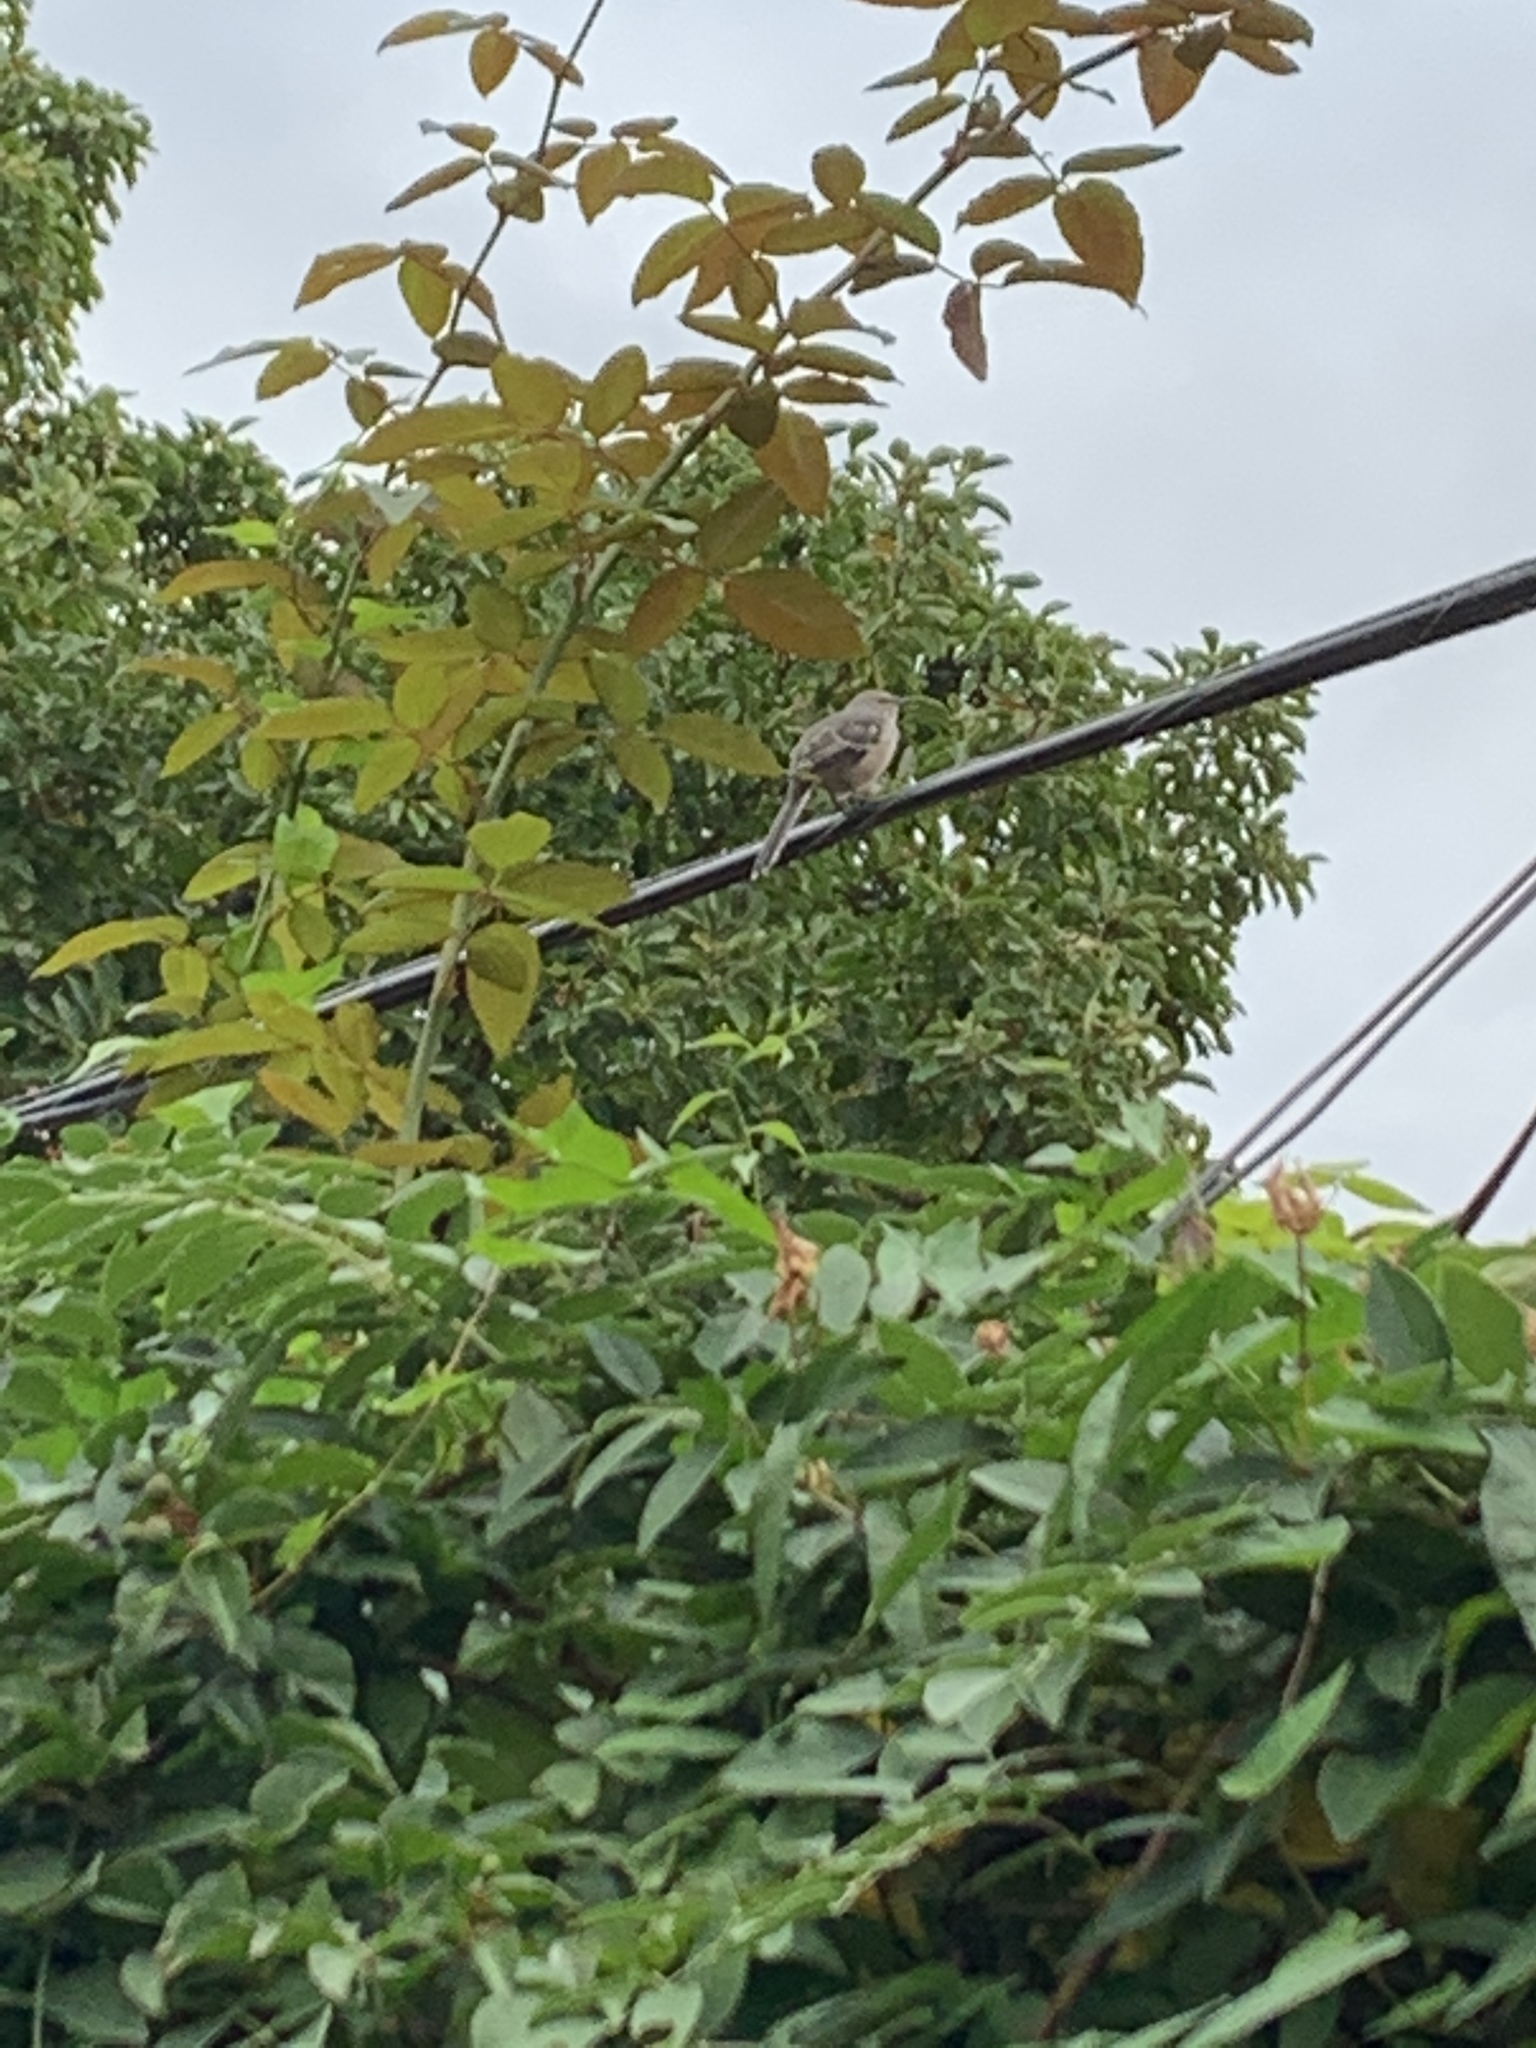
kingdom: Animalia
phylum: Chordata
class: Aves
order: Passeriformes
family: Mimidae
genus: Mimus
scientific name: Mimus polyglottos
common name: Northern mockingbird
